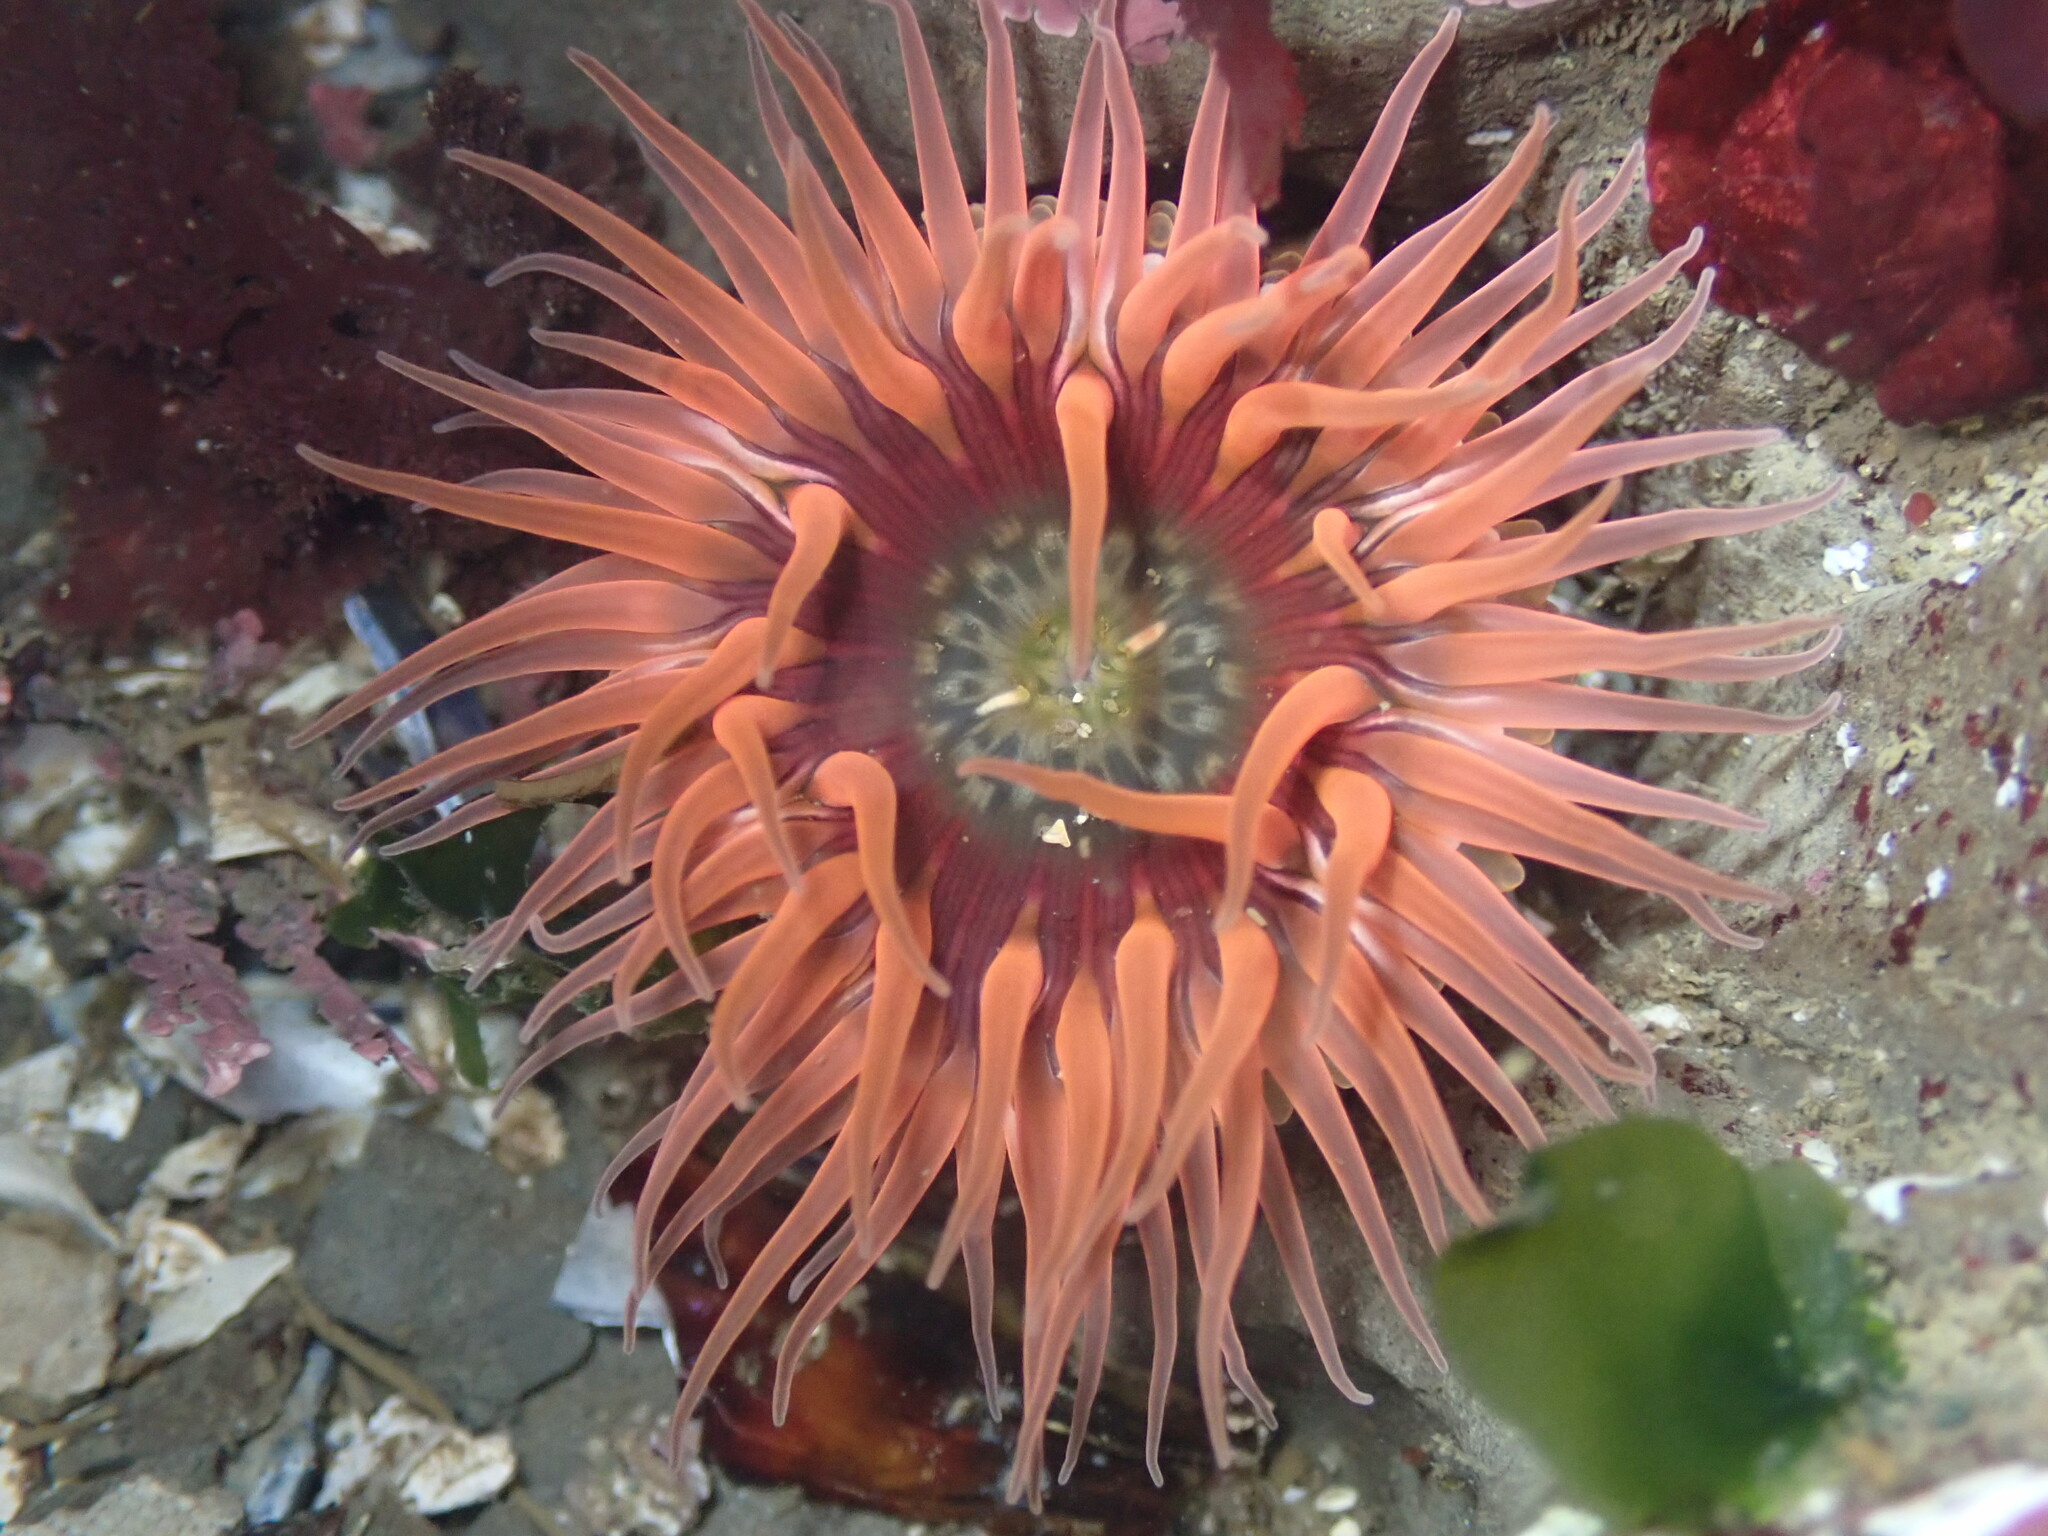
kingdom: Animalia
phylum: Cnidaria
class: Anthozoa
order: Actiniaria
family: Actiniidae
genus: Anthopleura
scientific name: Anthopleura artemisia
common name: Buried sea anemone
